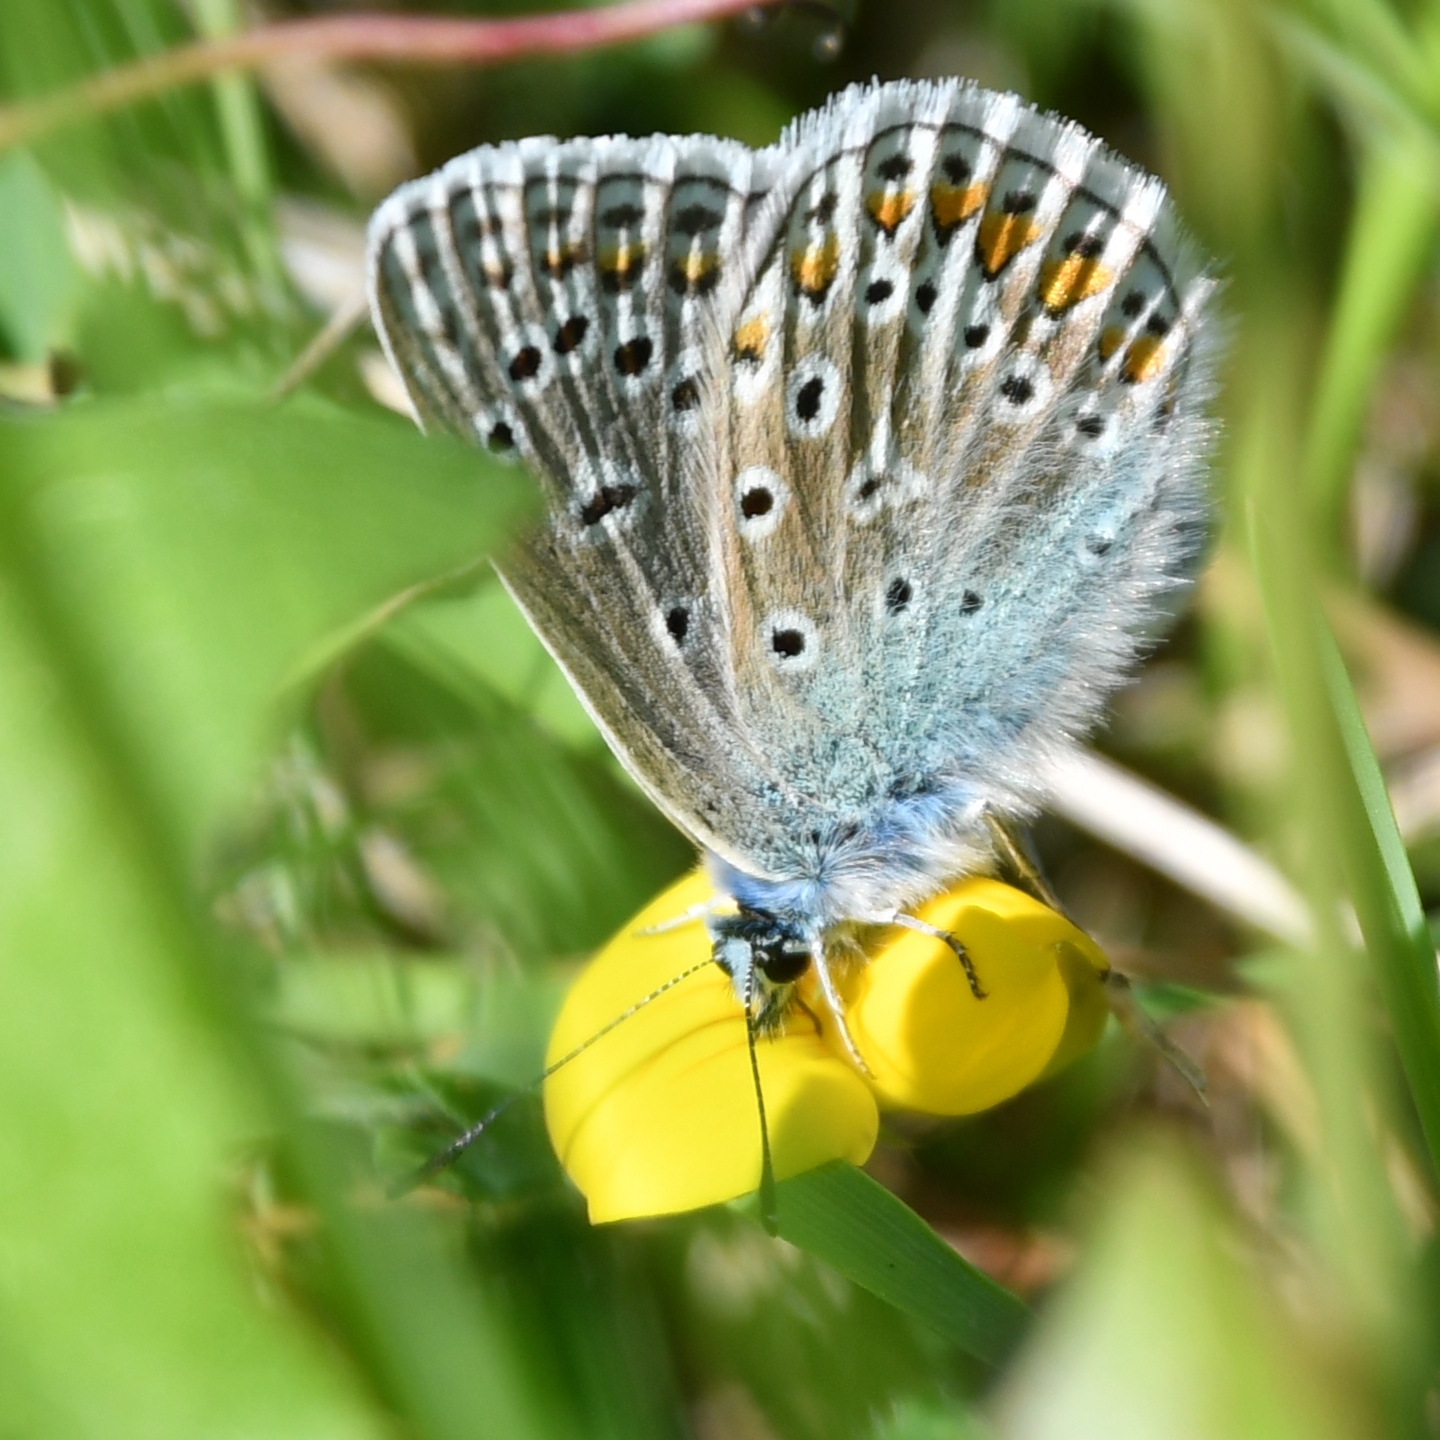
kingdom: Animalia
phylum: Arthropoda
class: Insecta
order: Lepidoptera
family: Lycaenidae
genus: Polyommatus
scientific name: Polyommatus icarus
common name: Common blue
